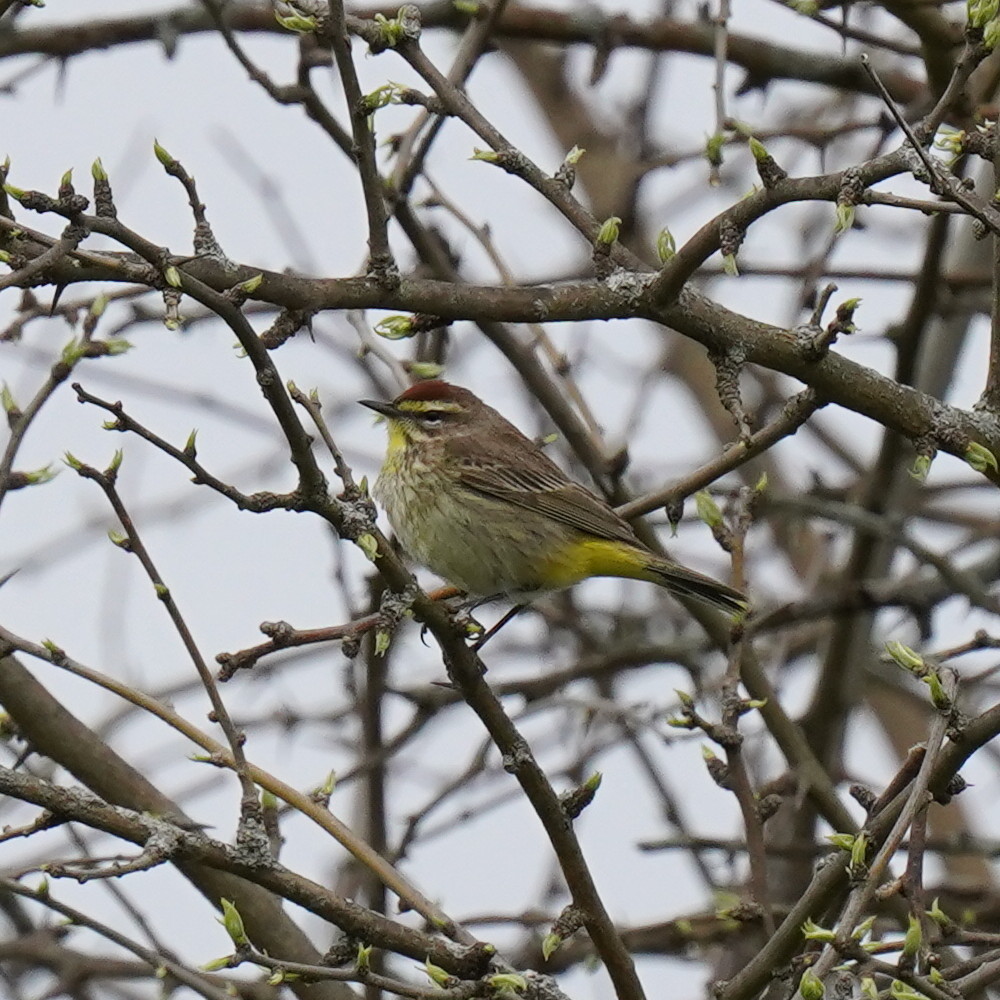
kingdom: Animalia
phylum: Chordata
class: Aves
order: Passeriformes
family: Parulidae
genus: Setophaga
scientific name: Setophaga palmarum
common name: Palm warbler
